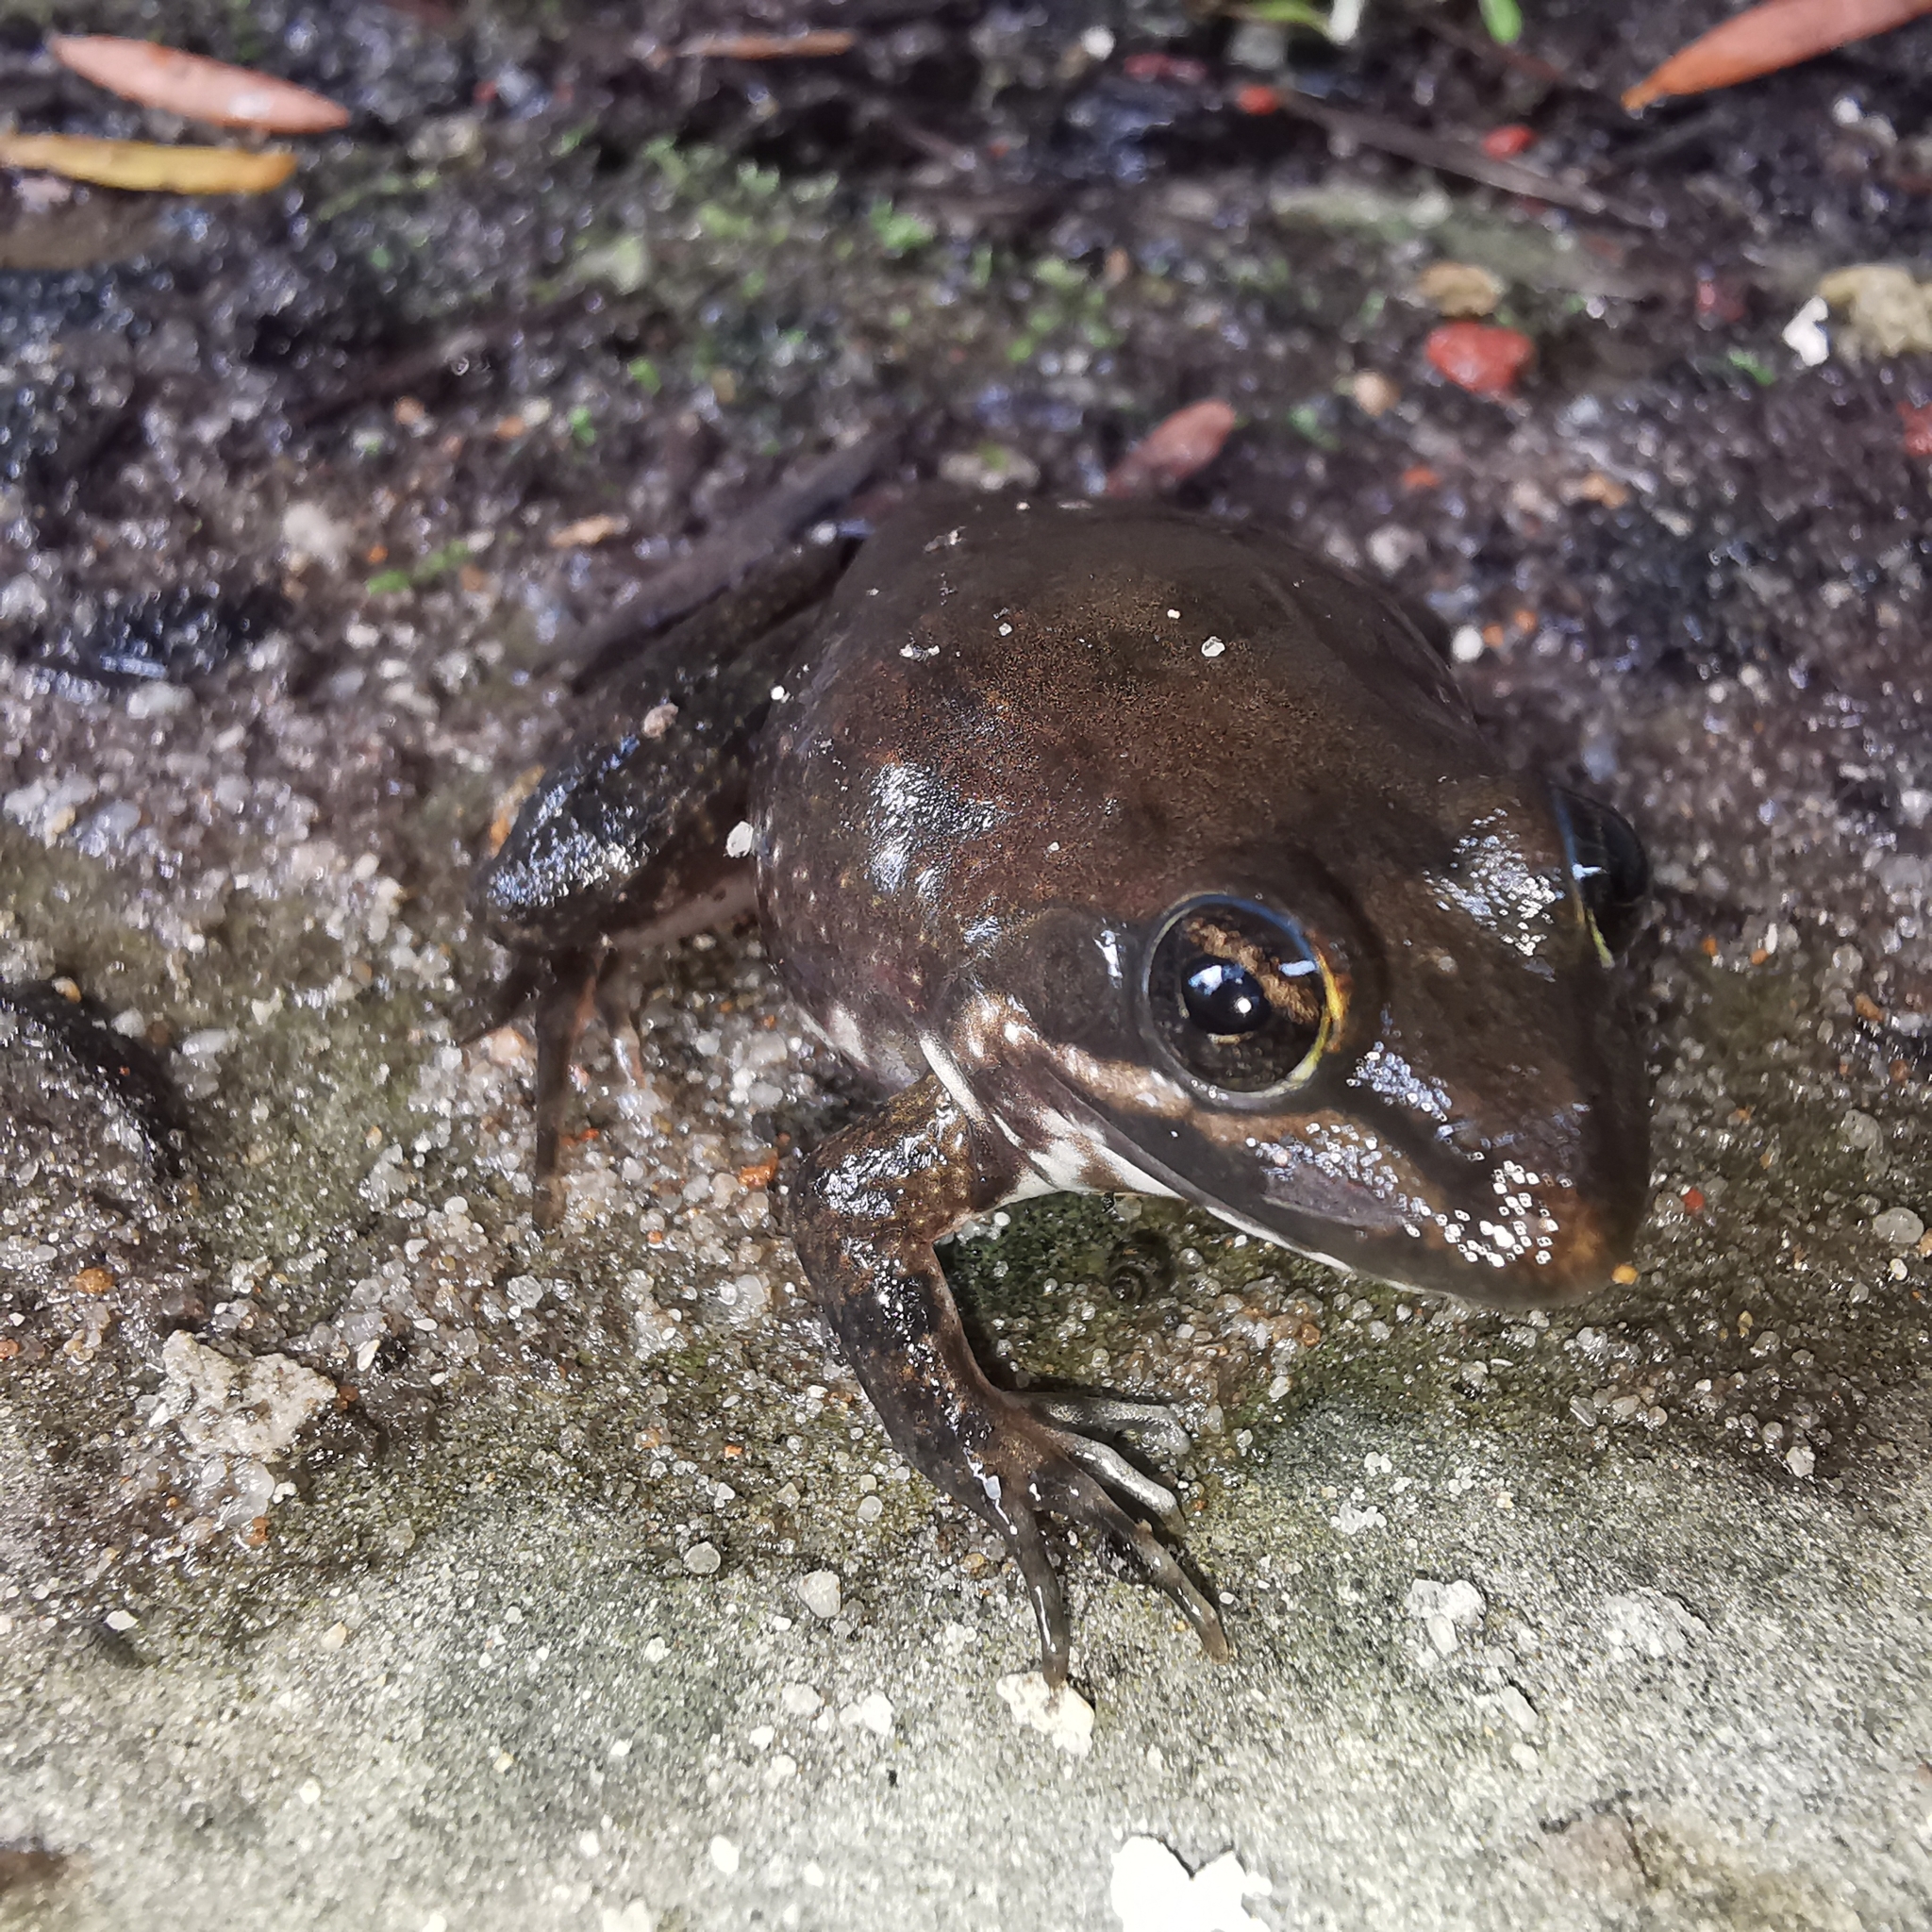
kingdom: Animalia
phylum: Chordata
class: Amphibia
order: Anura
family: Pyxicephalidae
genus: Amietia
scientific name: Amietia fuscigula
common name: Cape rana
